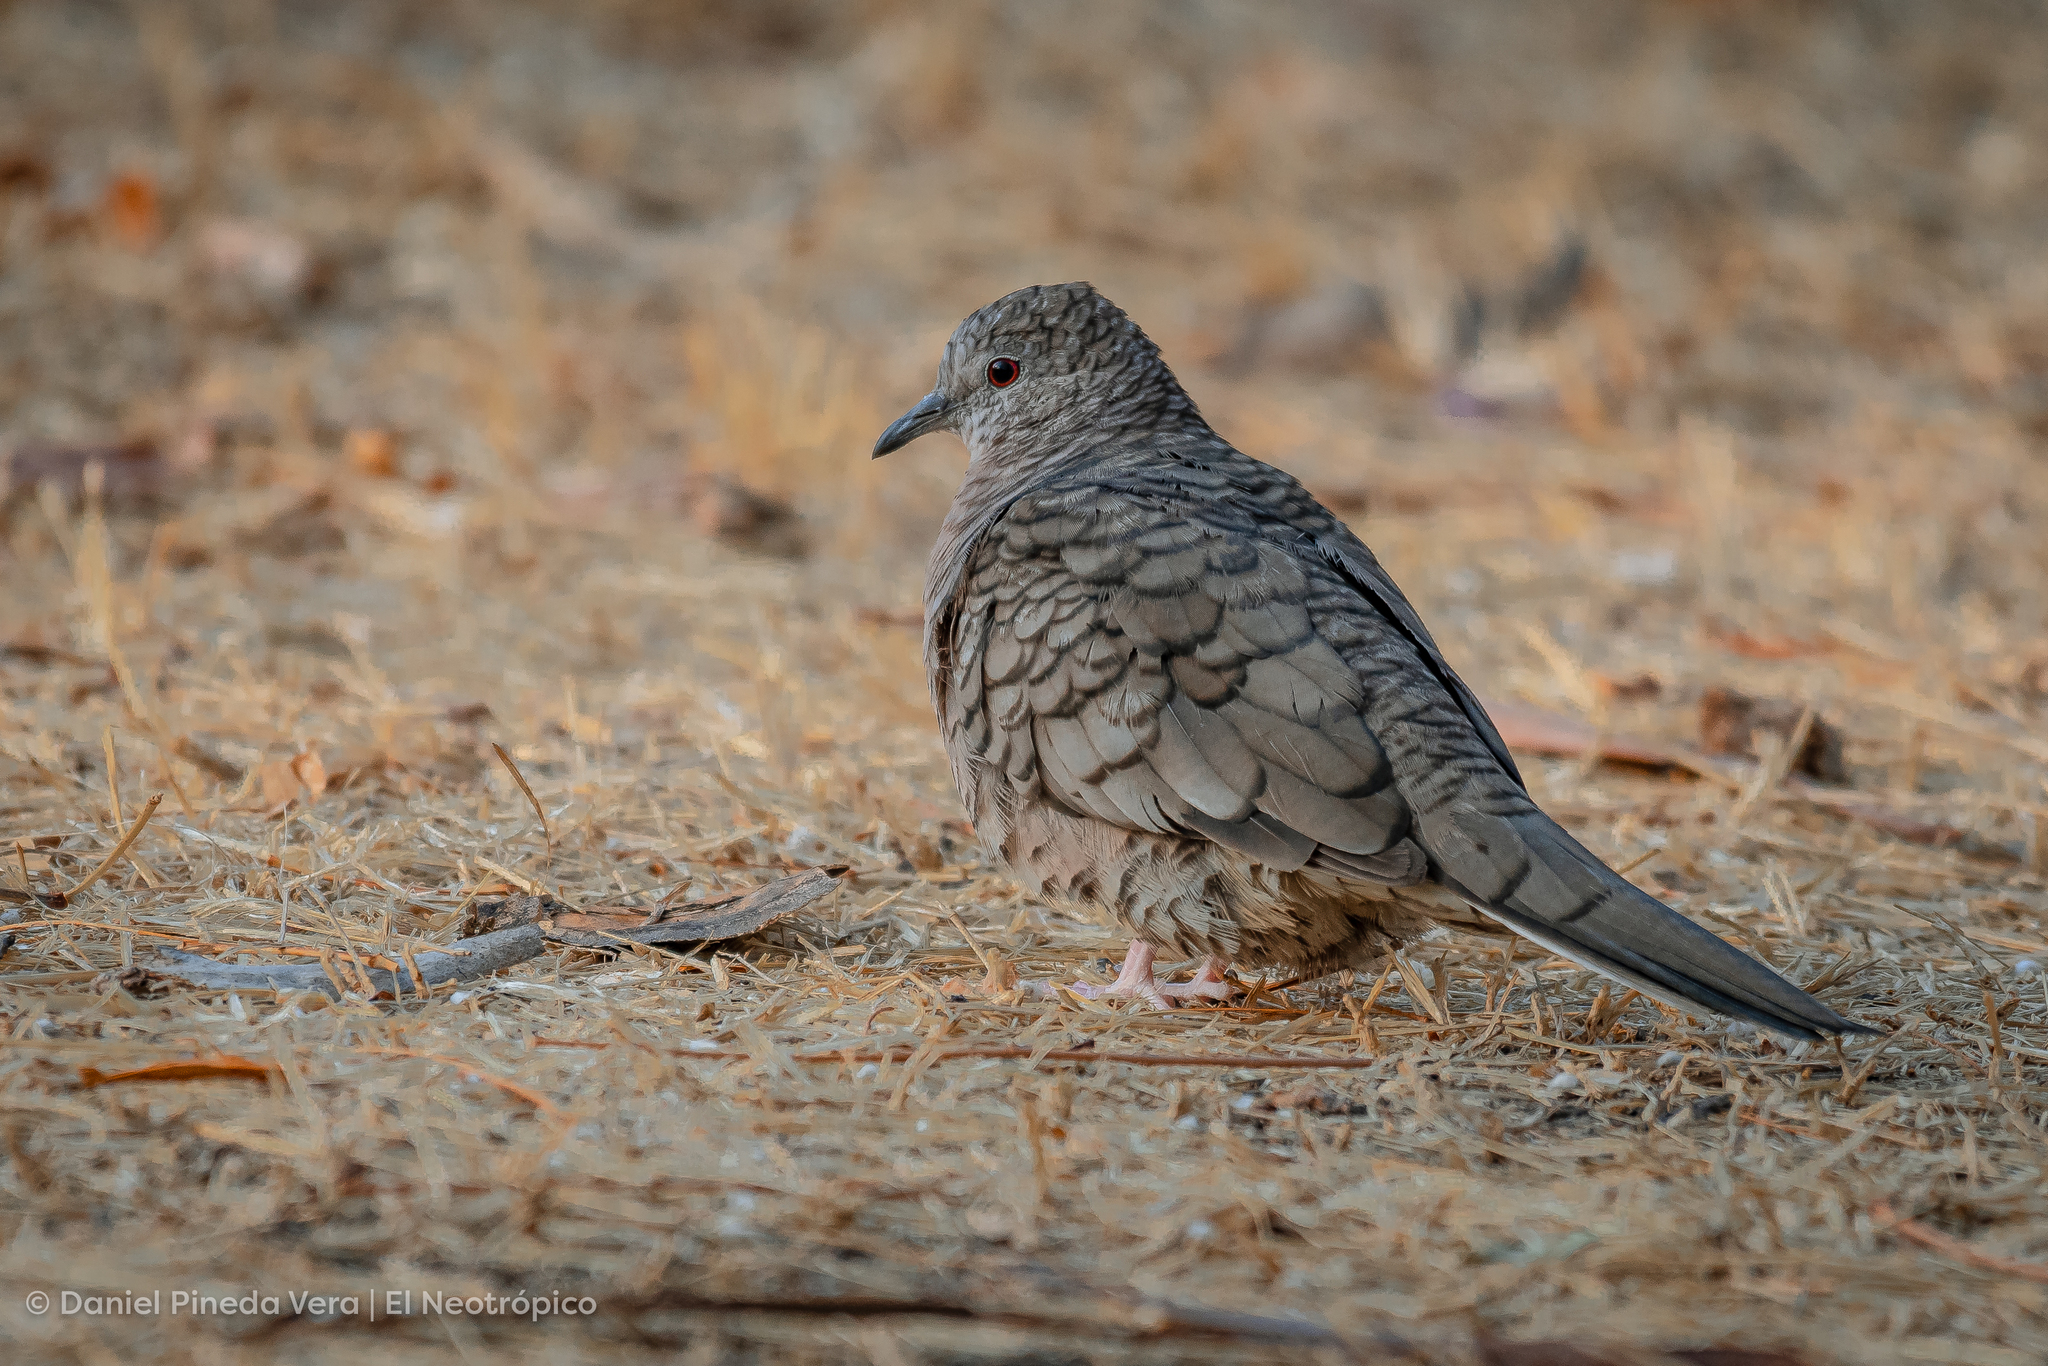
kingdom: Animalia
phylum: Chordata
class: Aves
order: Columbiformes
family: Columbidae
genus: Columbina
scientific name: Columbina inca
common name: Inca dove
